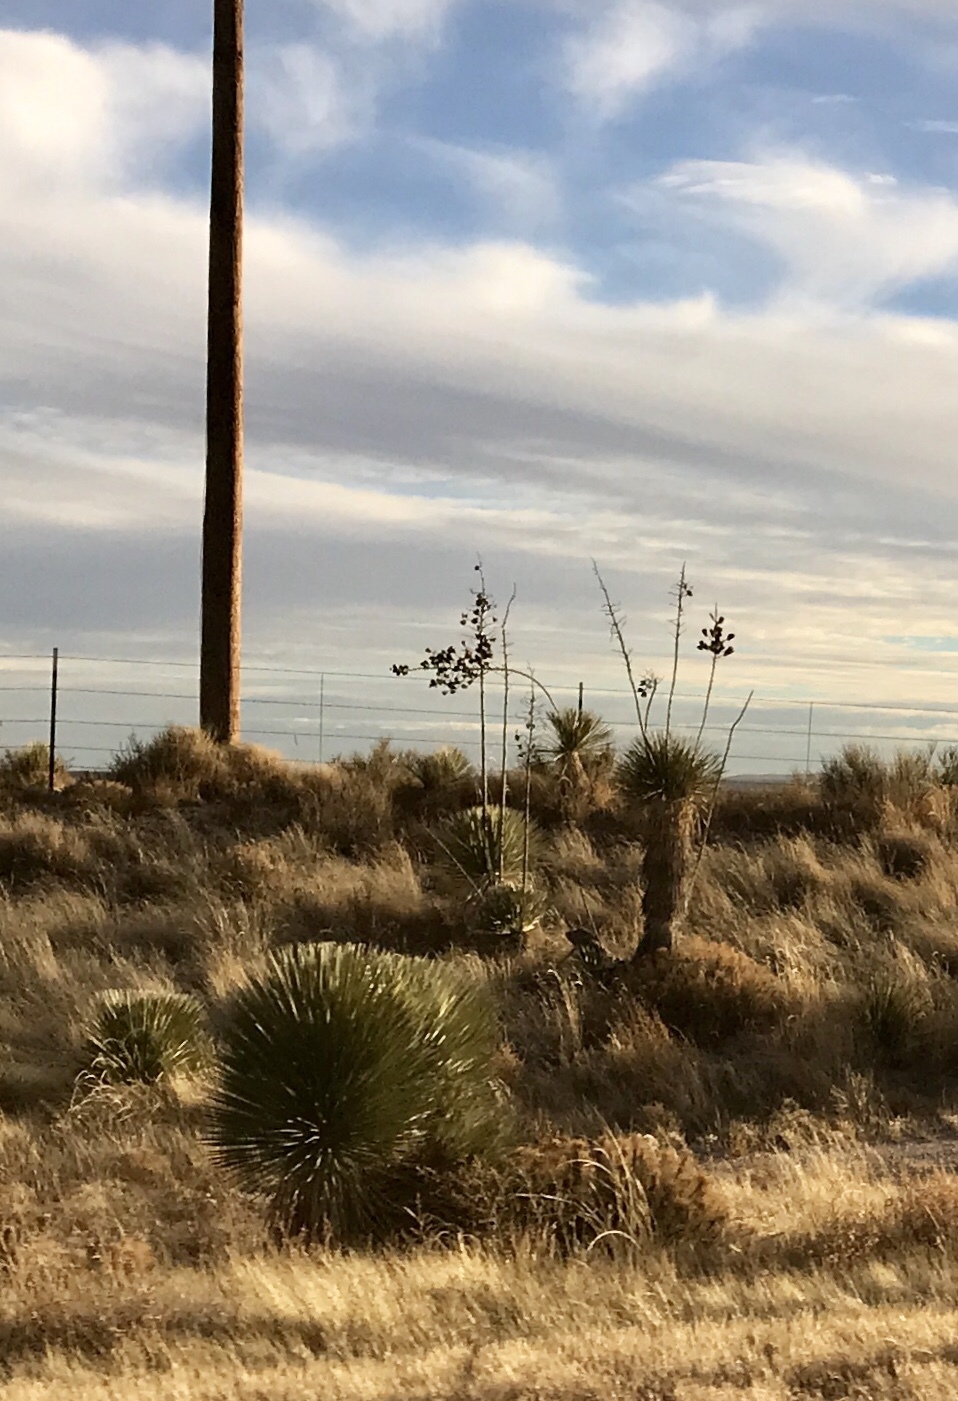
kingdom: Plantae
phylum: Tracheophyta
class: Liliopsida
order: Asparagales
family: Asparagaceae
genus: Yucca
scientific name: Yucca elata
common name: Palmella
